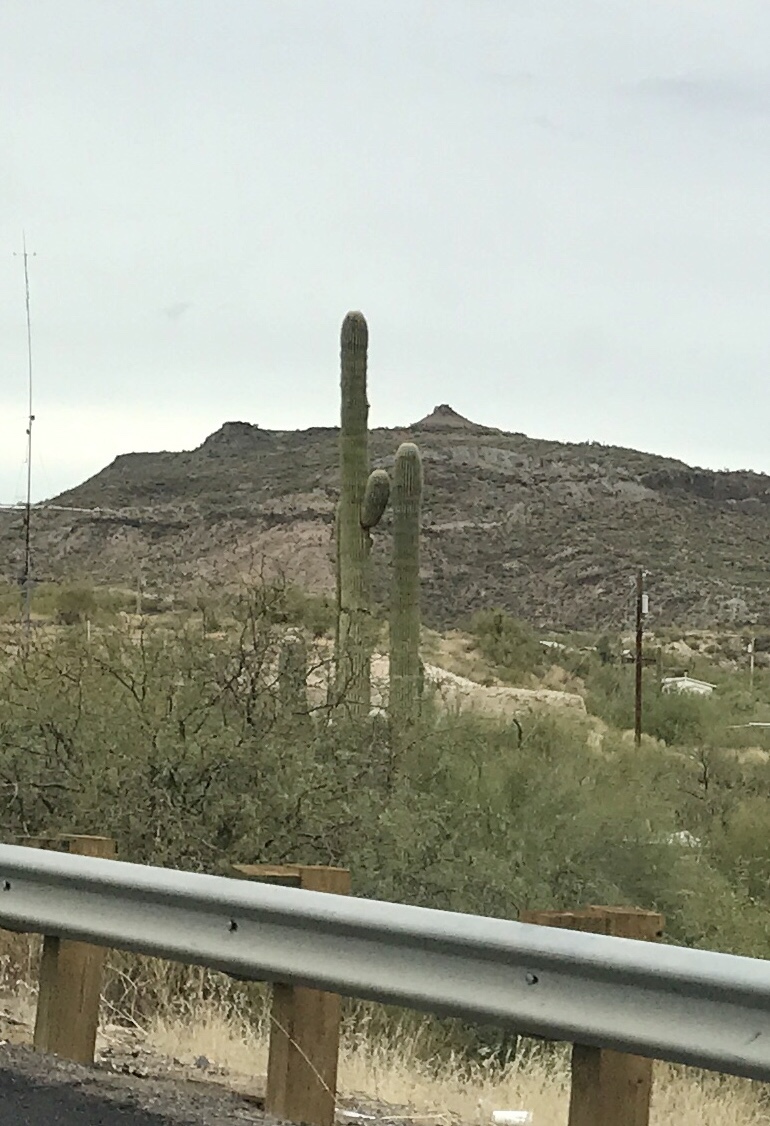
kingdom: Plantae
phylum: Tracheophyta
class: Magnoliopsida
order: Caryophyllales
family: Cactaceae
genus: Carnegiea
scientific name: Carnegiea gigantea
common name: Saguaro
